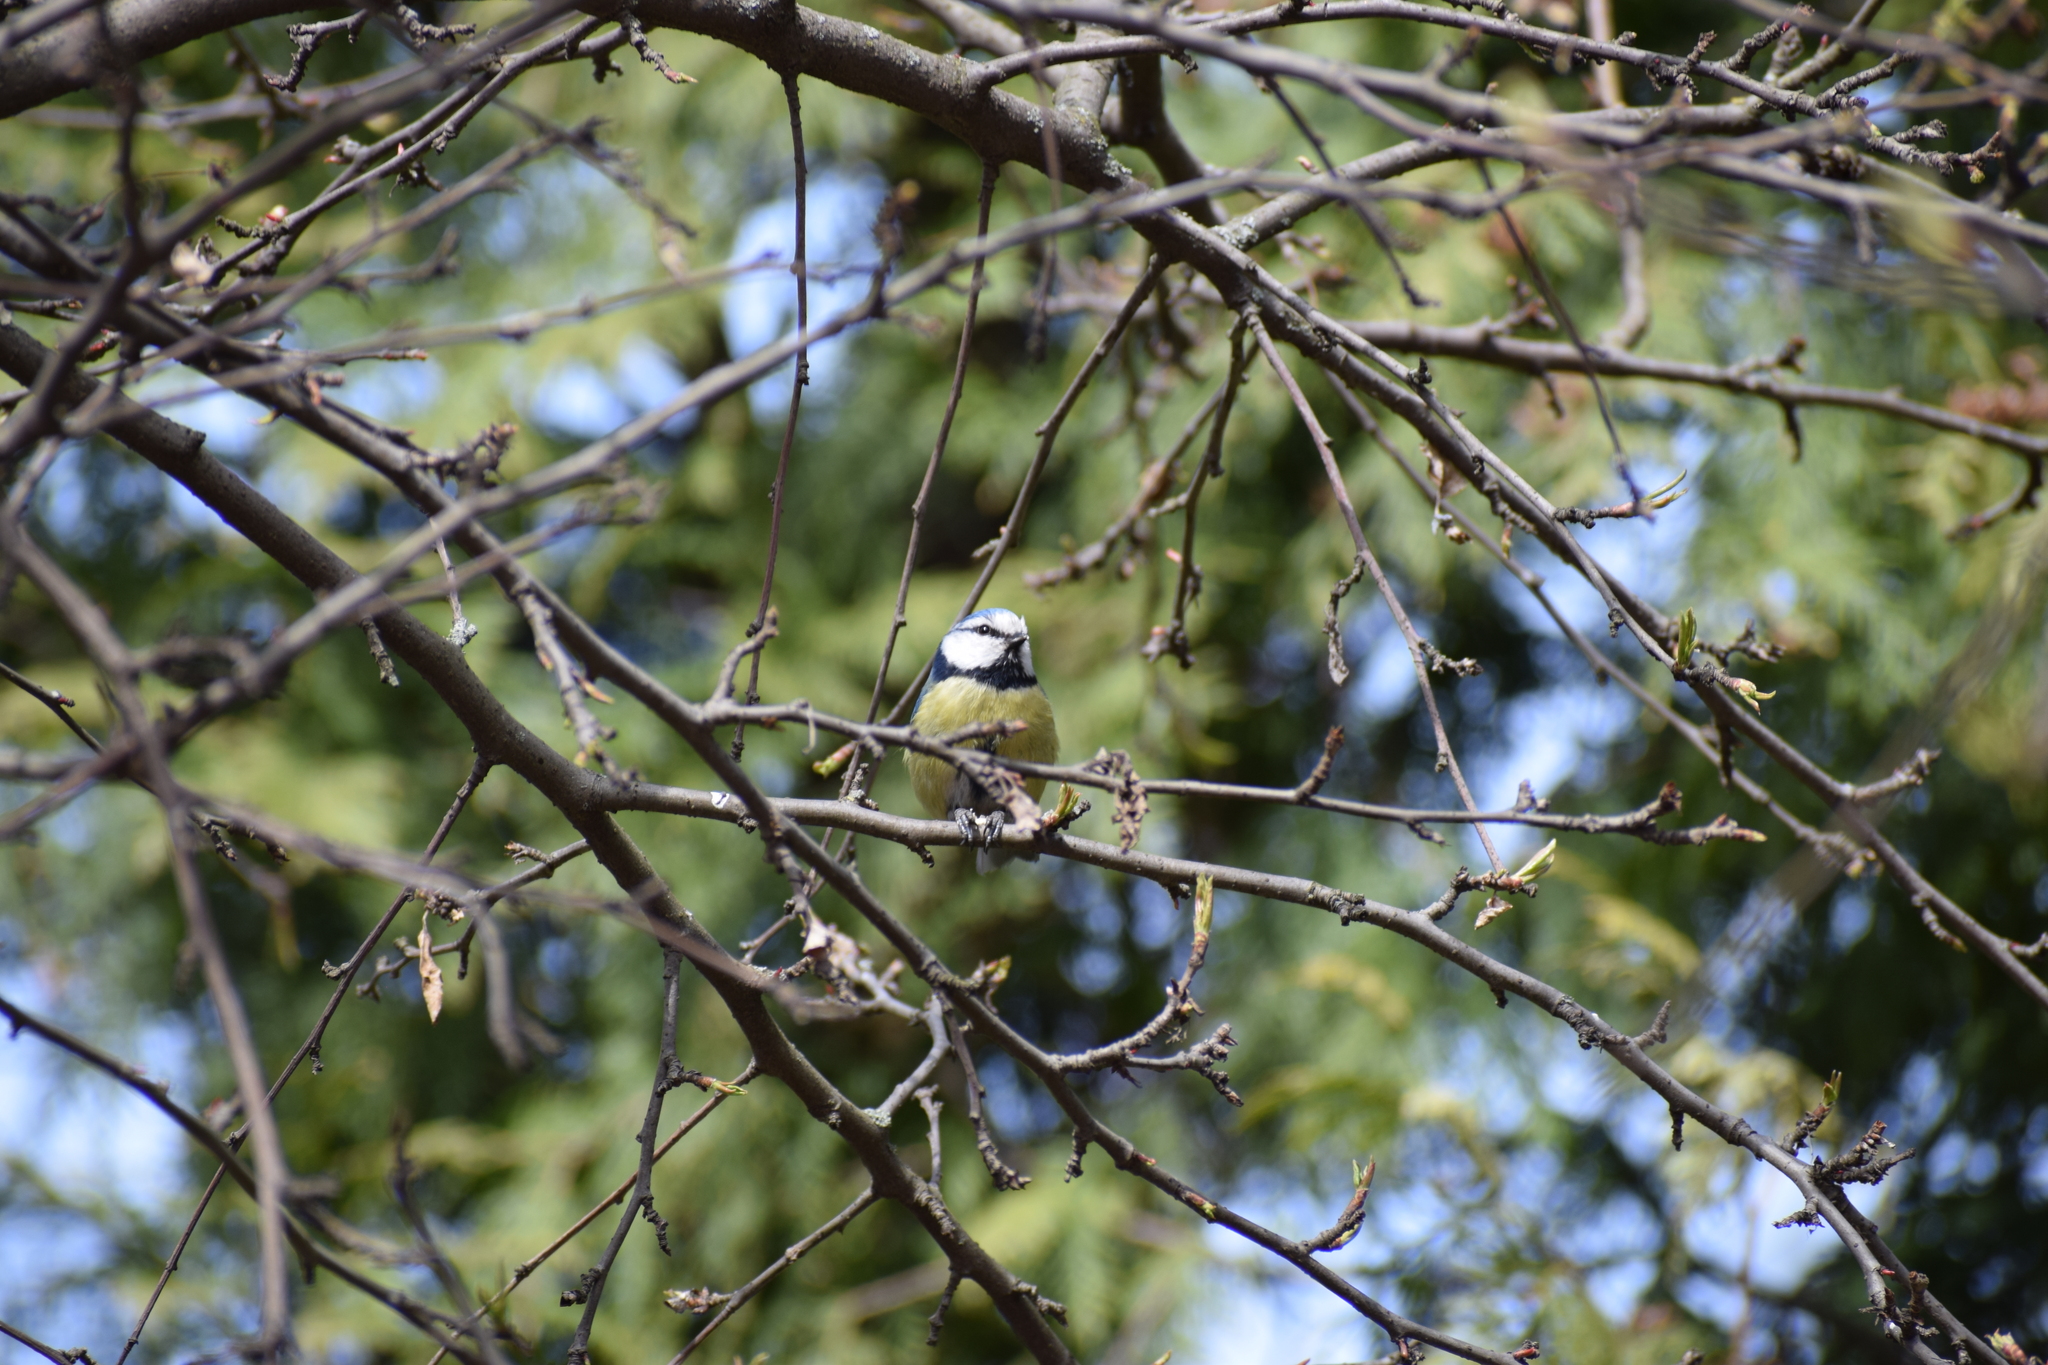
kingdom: Animalia
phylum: Chordata
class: Aves
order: Passeriformes
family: Paridae
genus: Cyanistes
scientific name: Cyanistes caeruleus
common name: Eurasian blue tit
